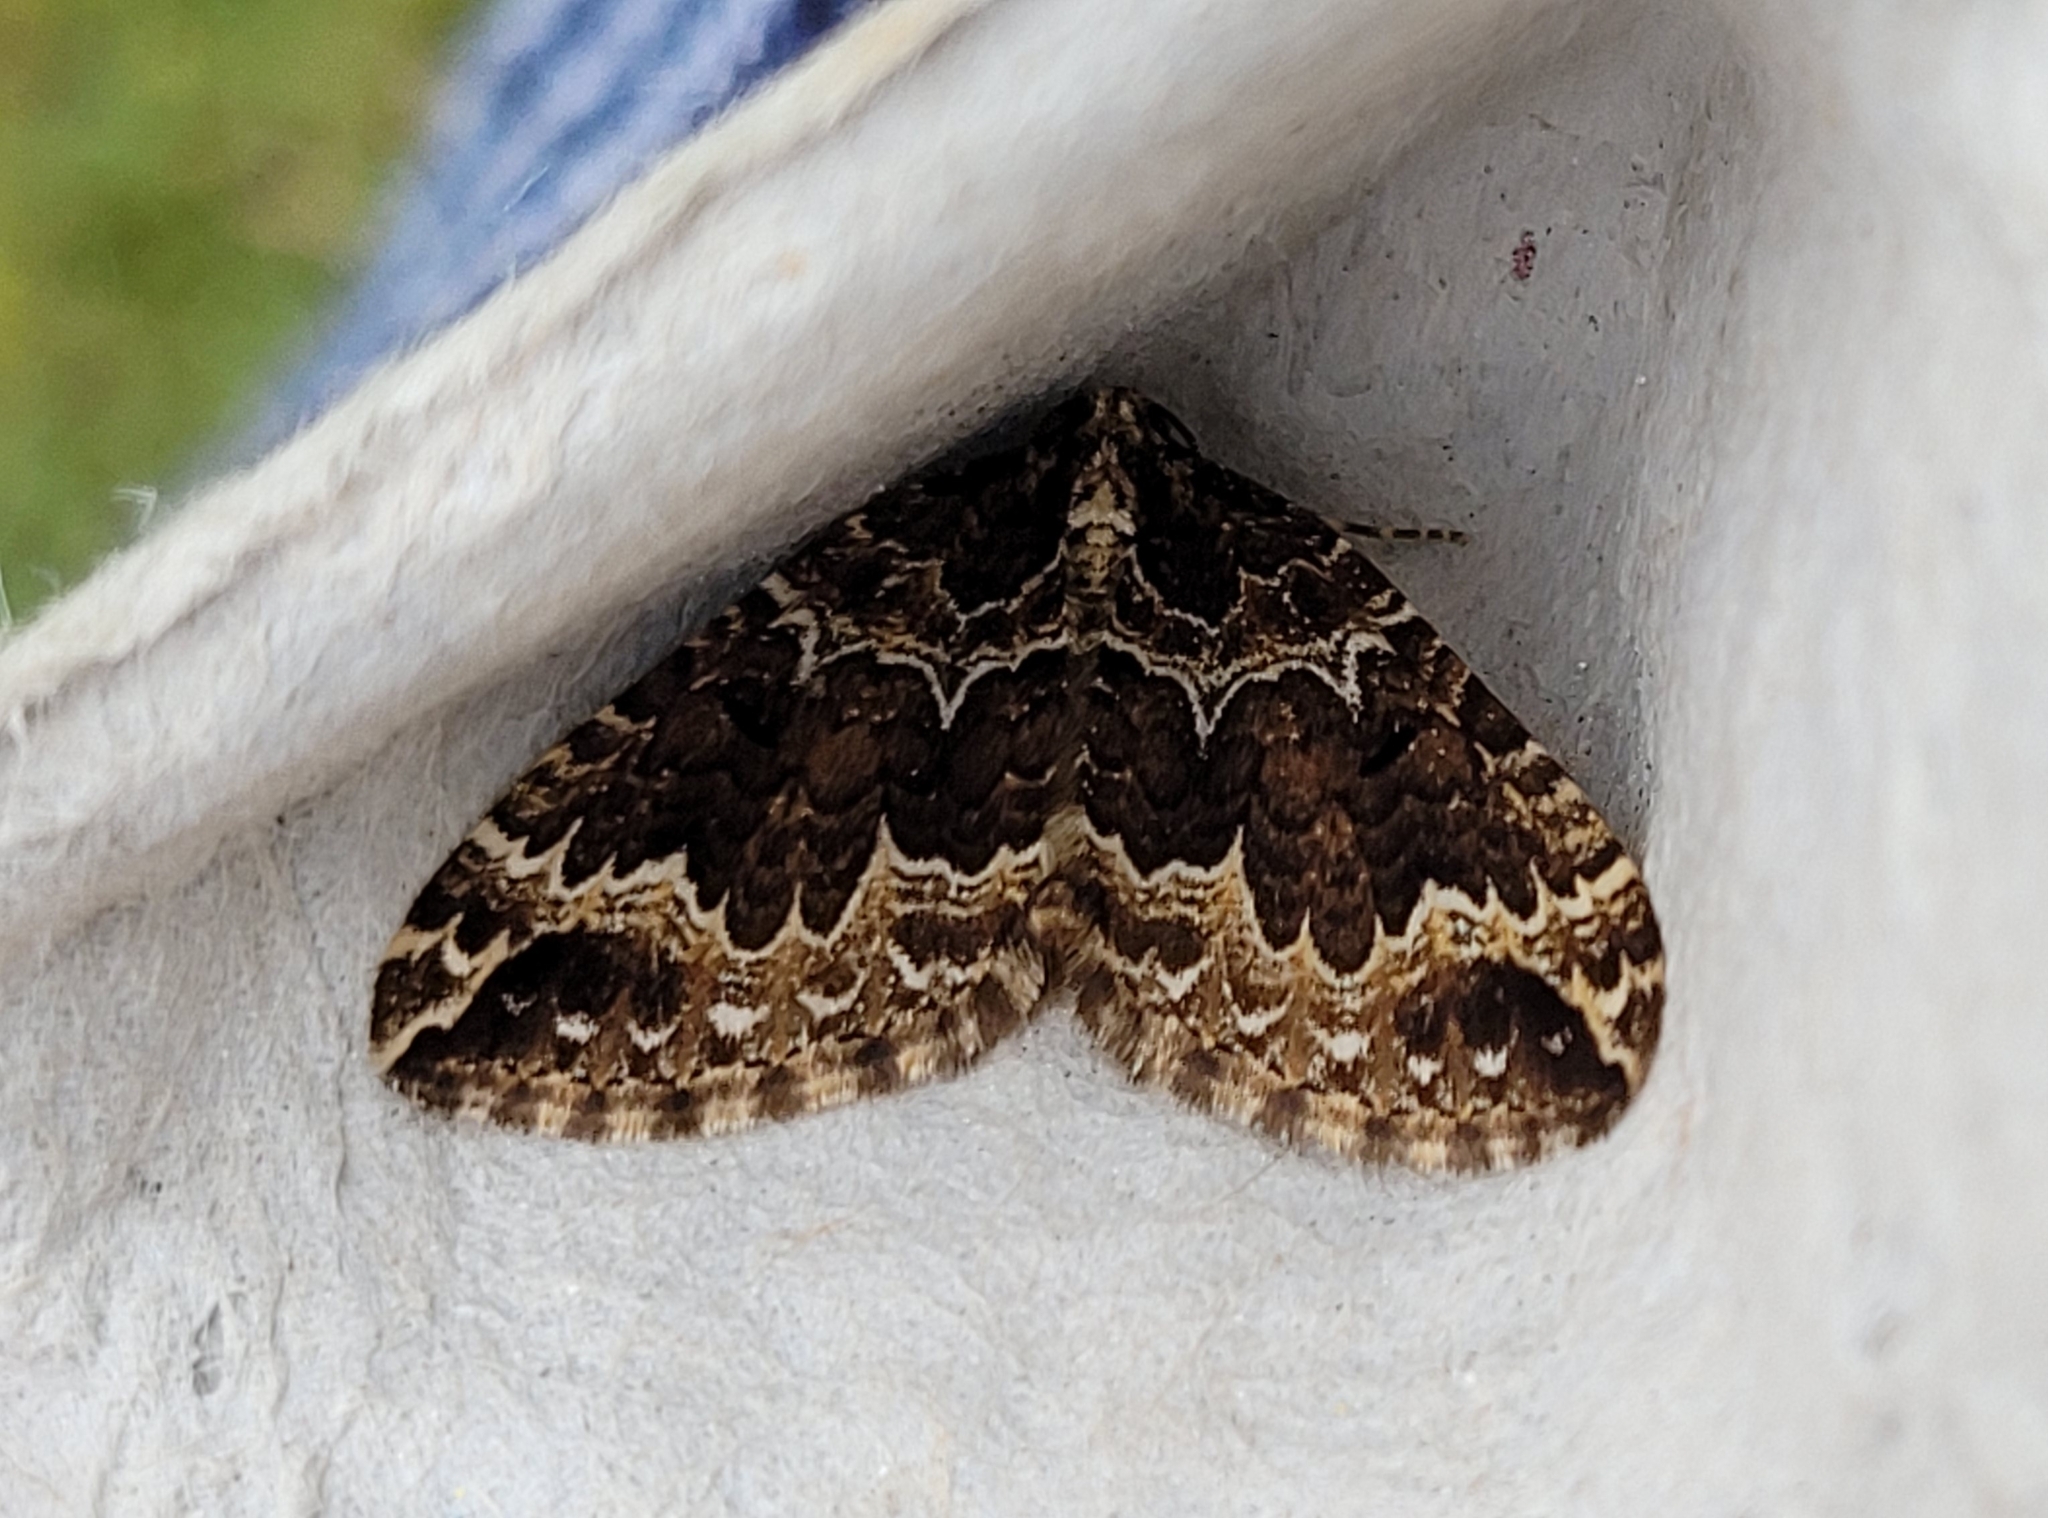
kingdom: Animalia
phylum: Arthropoda
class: Insecta
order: Lepidoptera
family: Geometridae
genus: Lampropteryx
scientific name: Lampropteryx suffumata
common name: Water carpet
